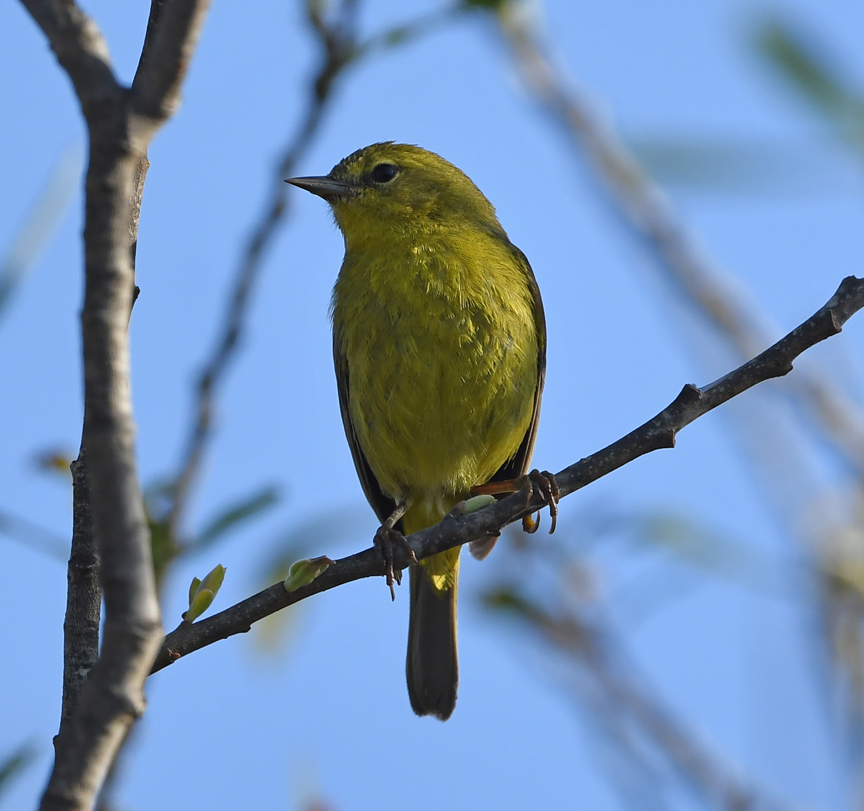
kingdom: Animalia
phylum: Chordata
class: Aves
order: Passeriformes
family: Parulidae
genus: Leiothlypis
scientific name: Leiothlypis celata
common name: Orange-crowned warbler
